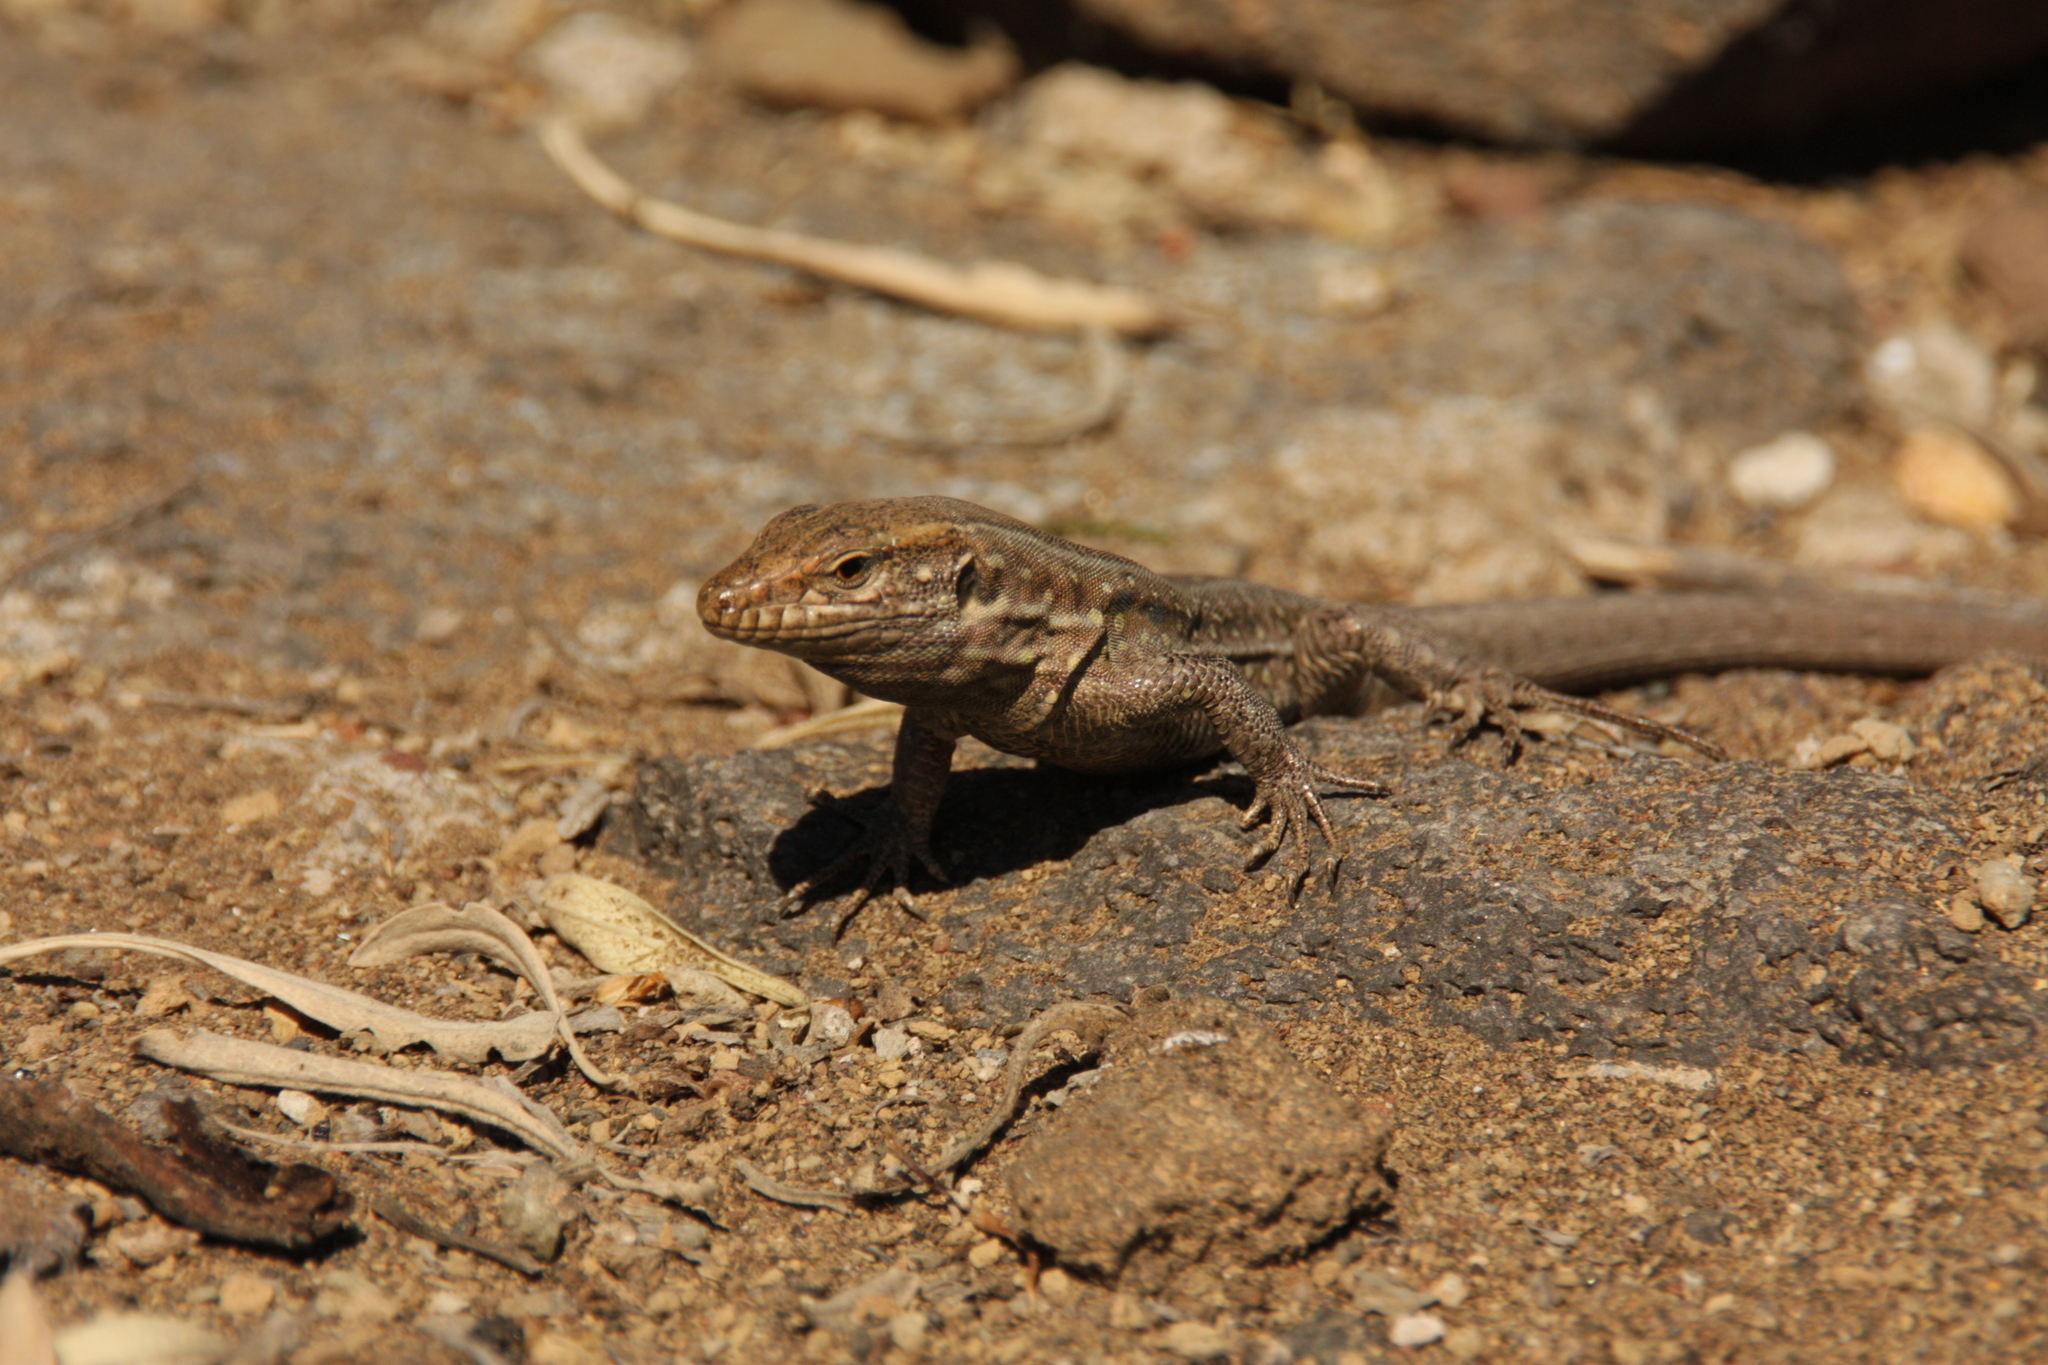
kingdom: Animalia
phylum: Chordata
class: Squamata
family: Lacertidae
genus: Gallotia
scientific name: Gallotia galloti
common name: Gallot's lizard
